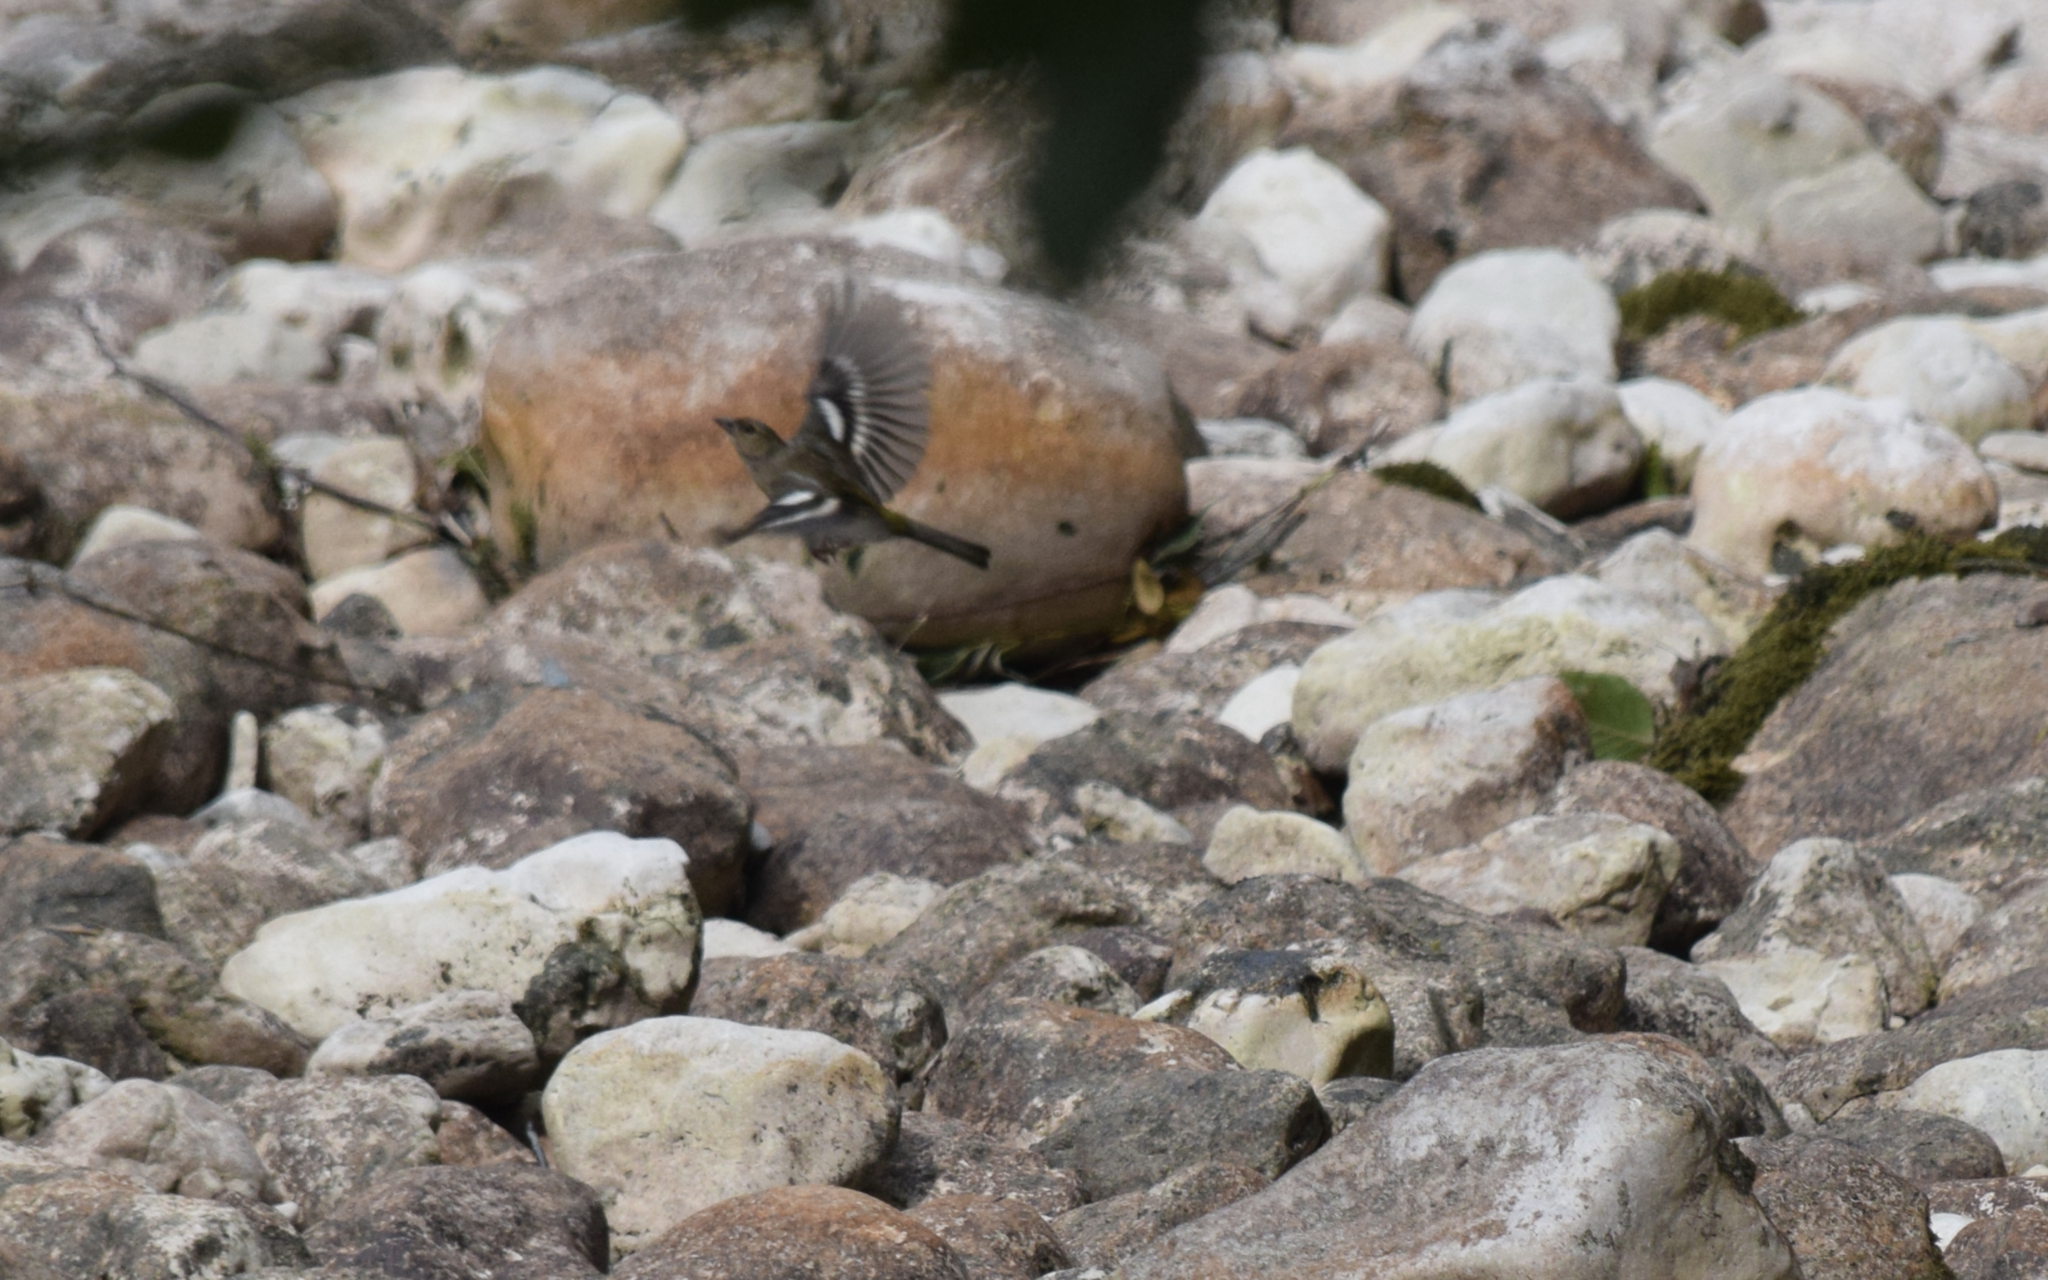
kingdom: Animalia
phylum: Chordata
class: Aves
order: Passeriformes
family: Fringillidae
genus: Fringilla
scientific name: Fringilla coelebs
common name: Common chaffinch
